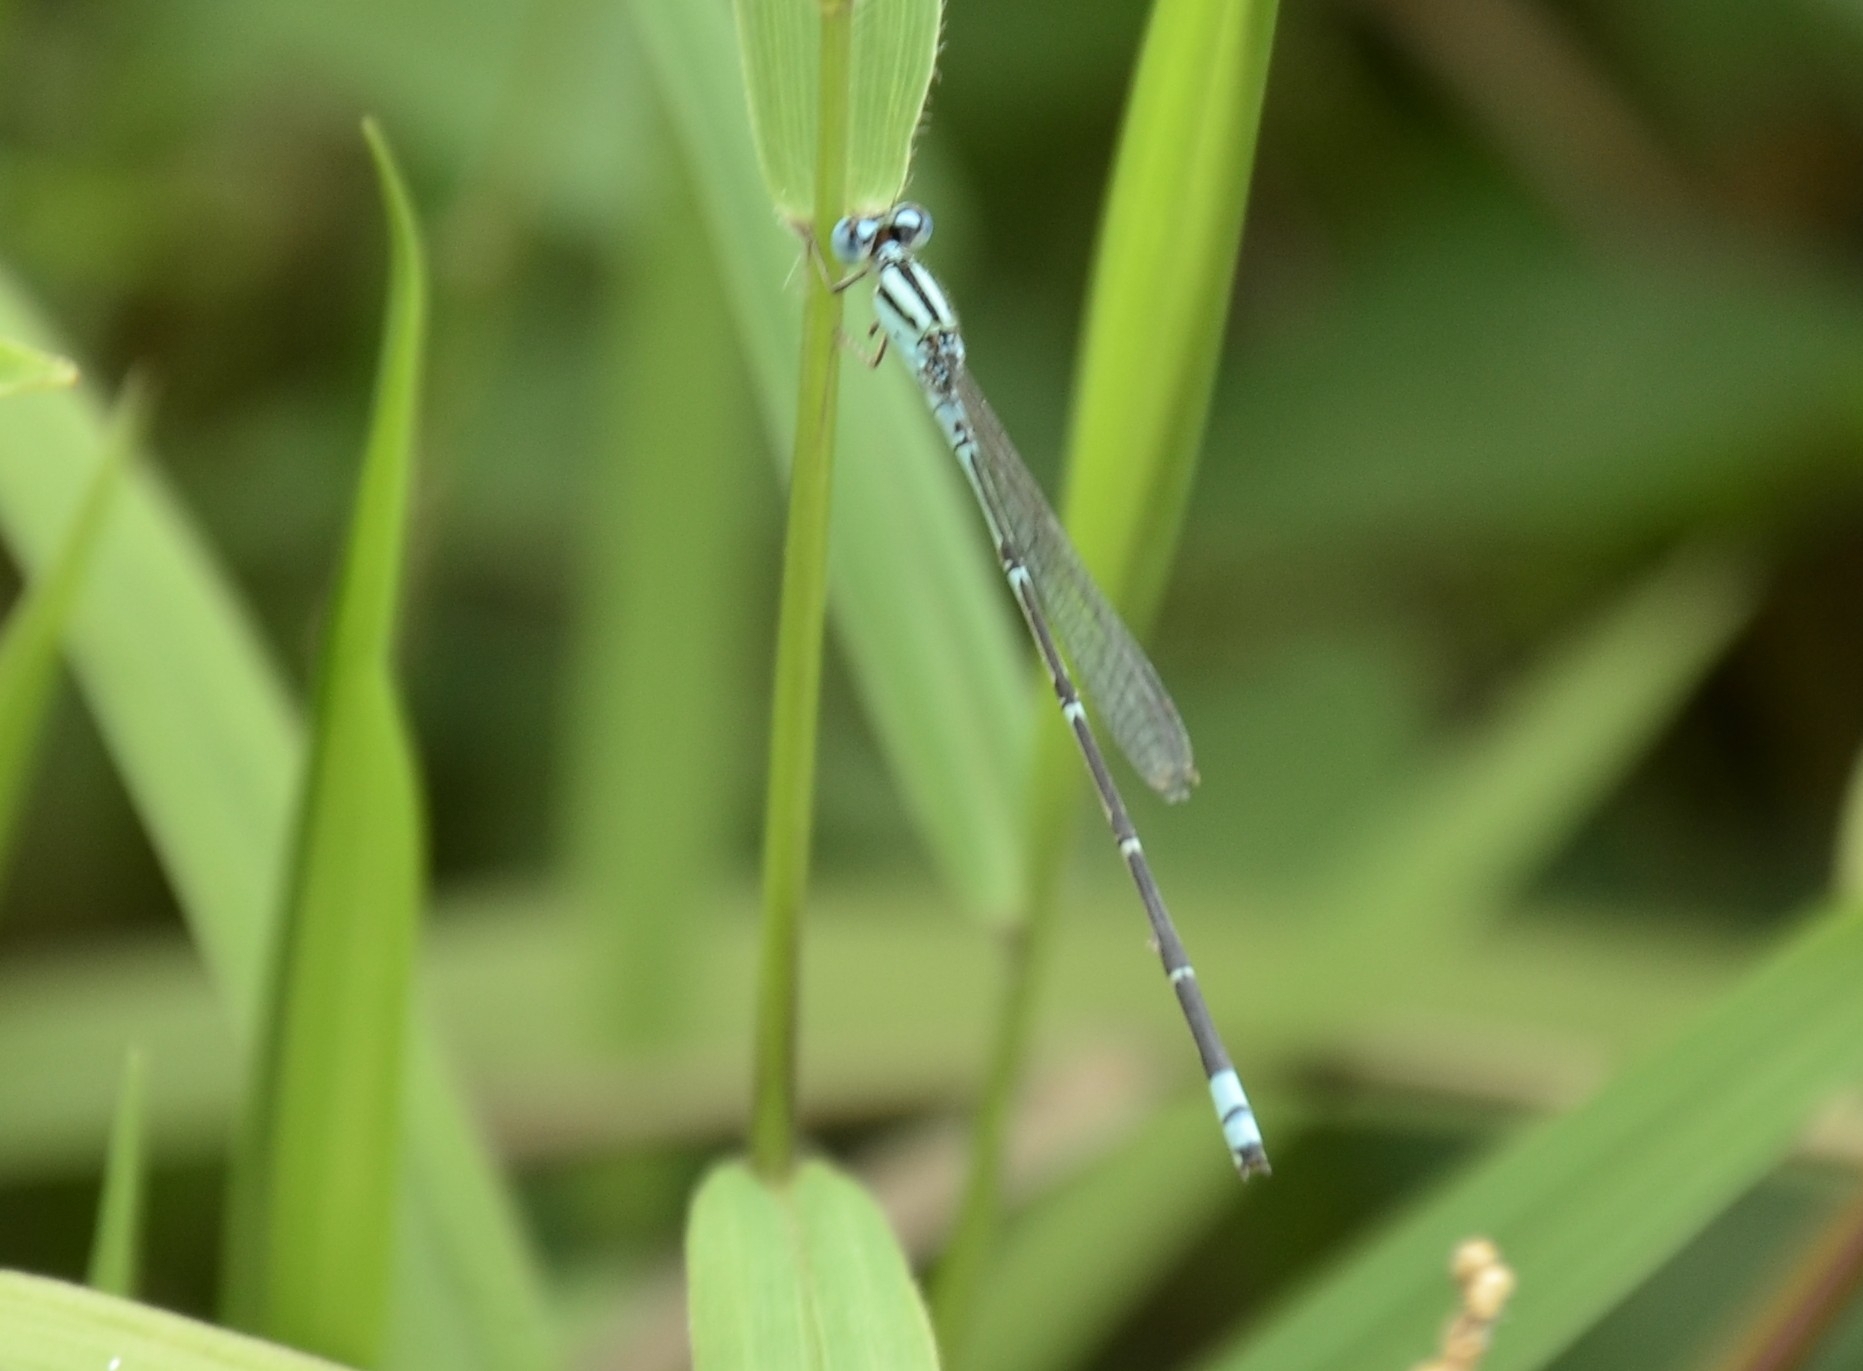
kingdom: Animalia
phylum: Arthropoda
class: Insecta
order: Odonata
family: Coenagrionidae
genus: Pseudagrion
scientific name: Pseudagrion microcephalum
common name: Blue riverdamsel
